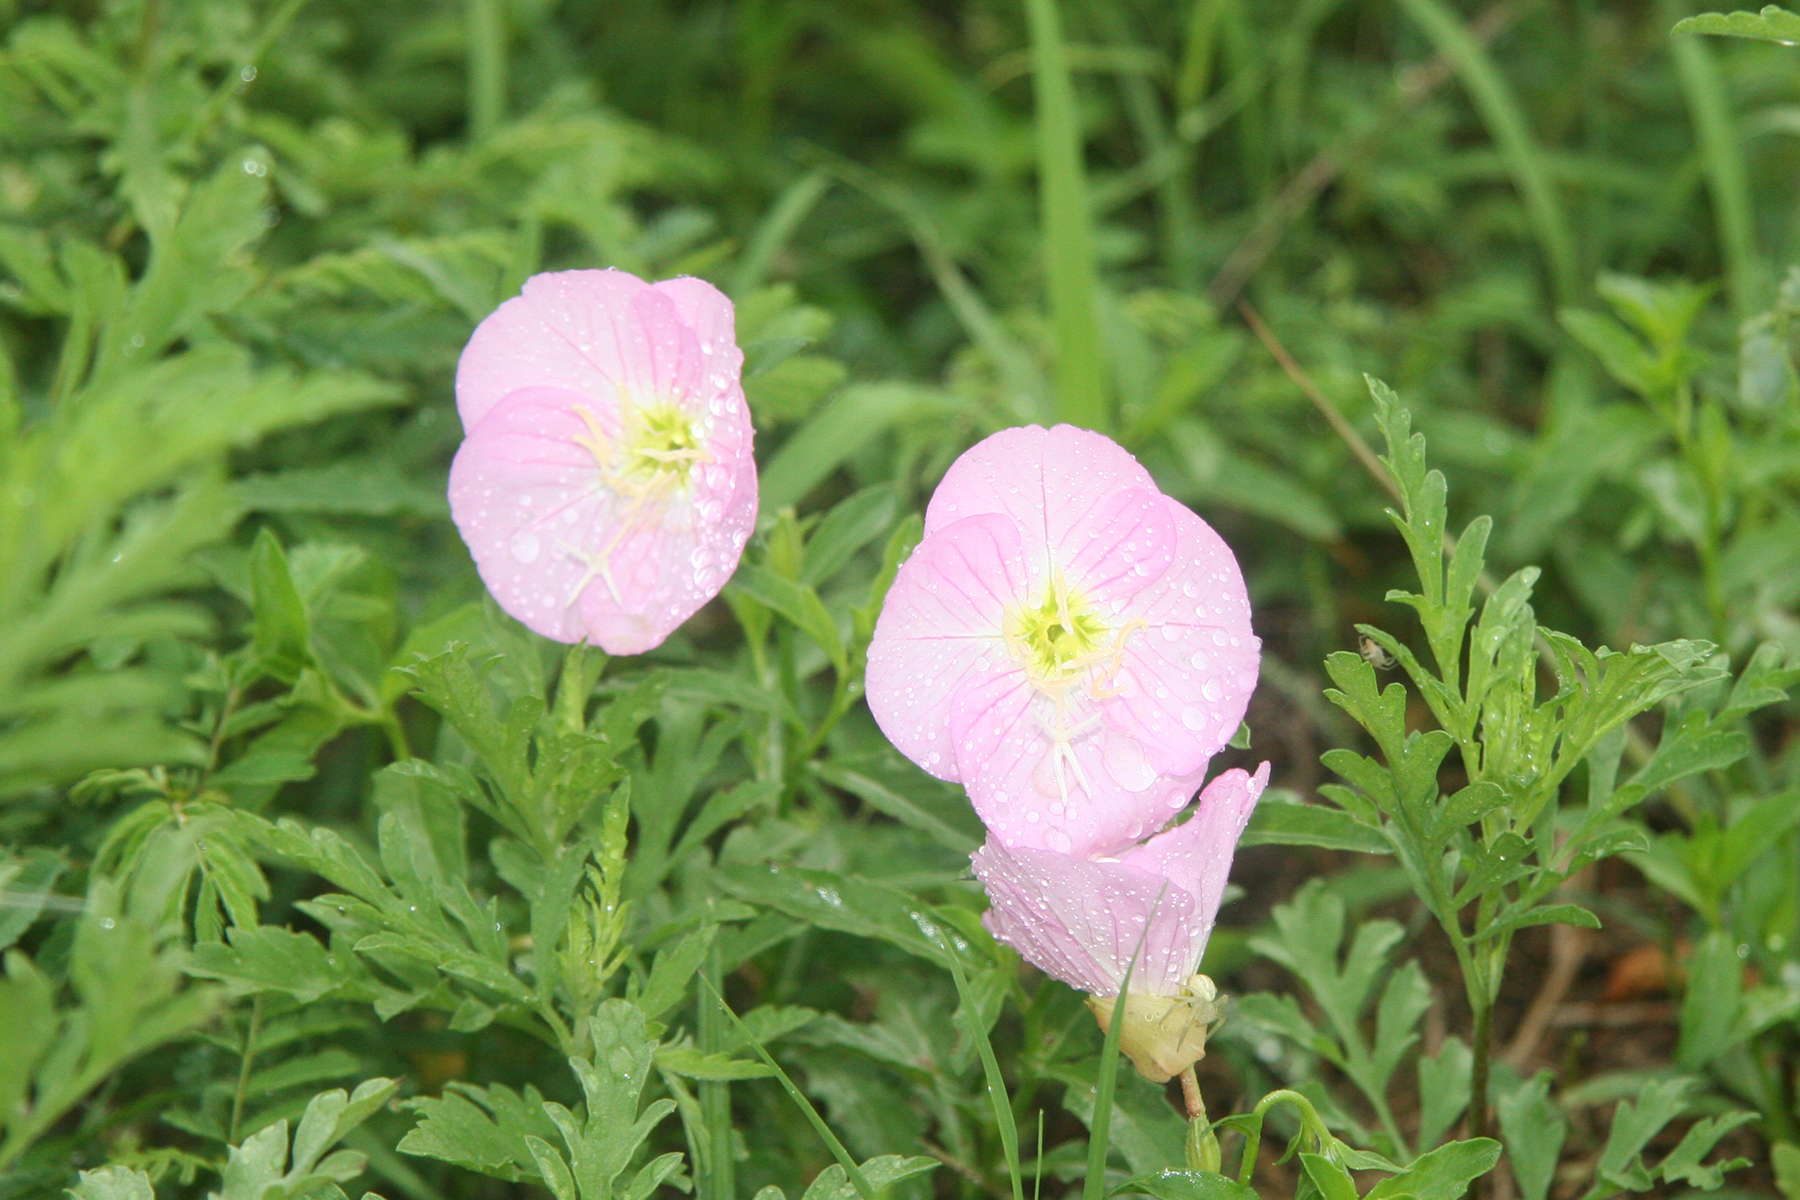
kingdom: Plantae
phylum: Tracheophyta
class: Magnoliopsida
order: Myrtales
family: Onagraceae
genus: Oenothera
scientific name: Oenothera speciosa
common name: White evening-primrose
